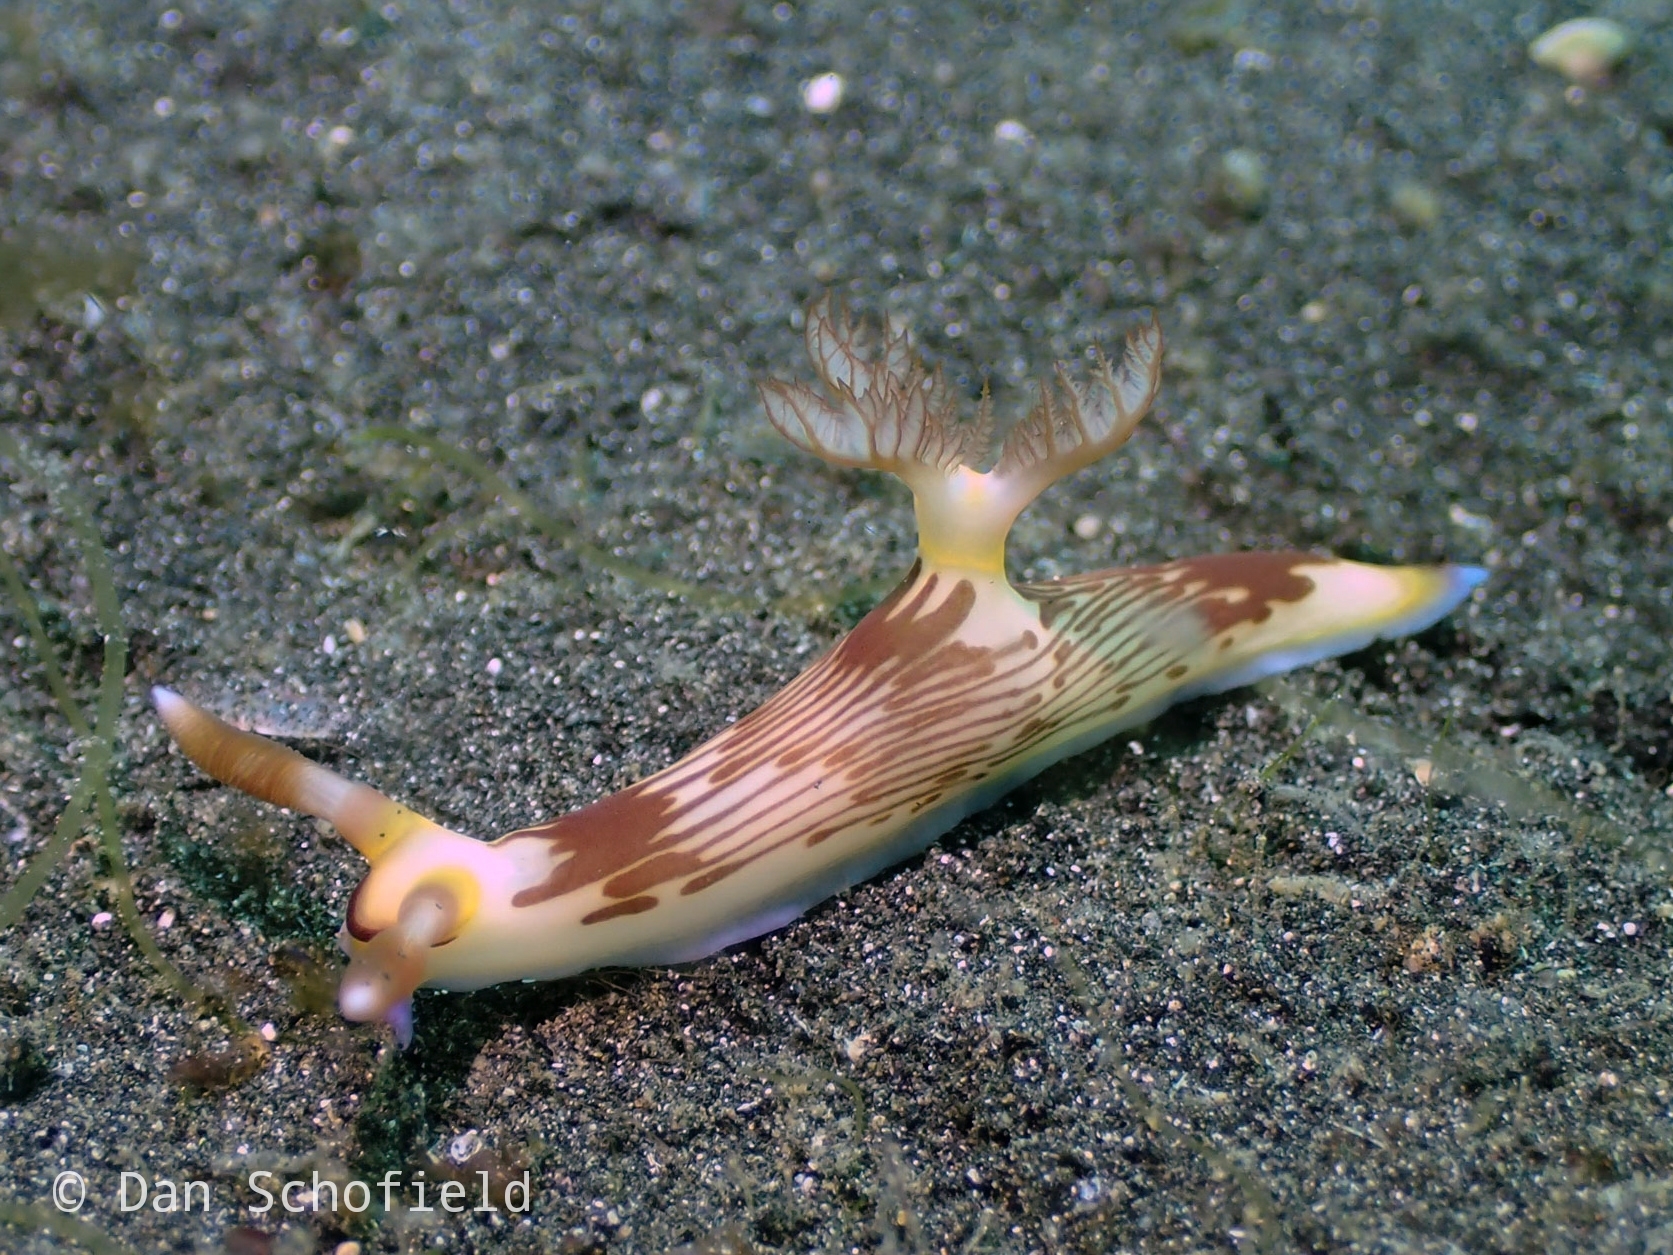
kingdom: Animalia
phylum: Mollusca
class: Gastropoda
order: Nudibranchia
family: Polyceridae
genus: Nembrotha
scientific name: Nembrotha lineolata
